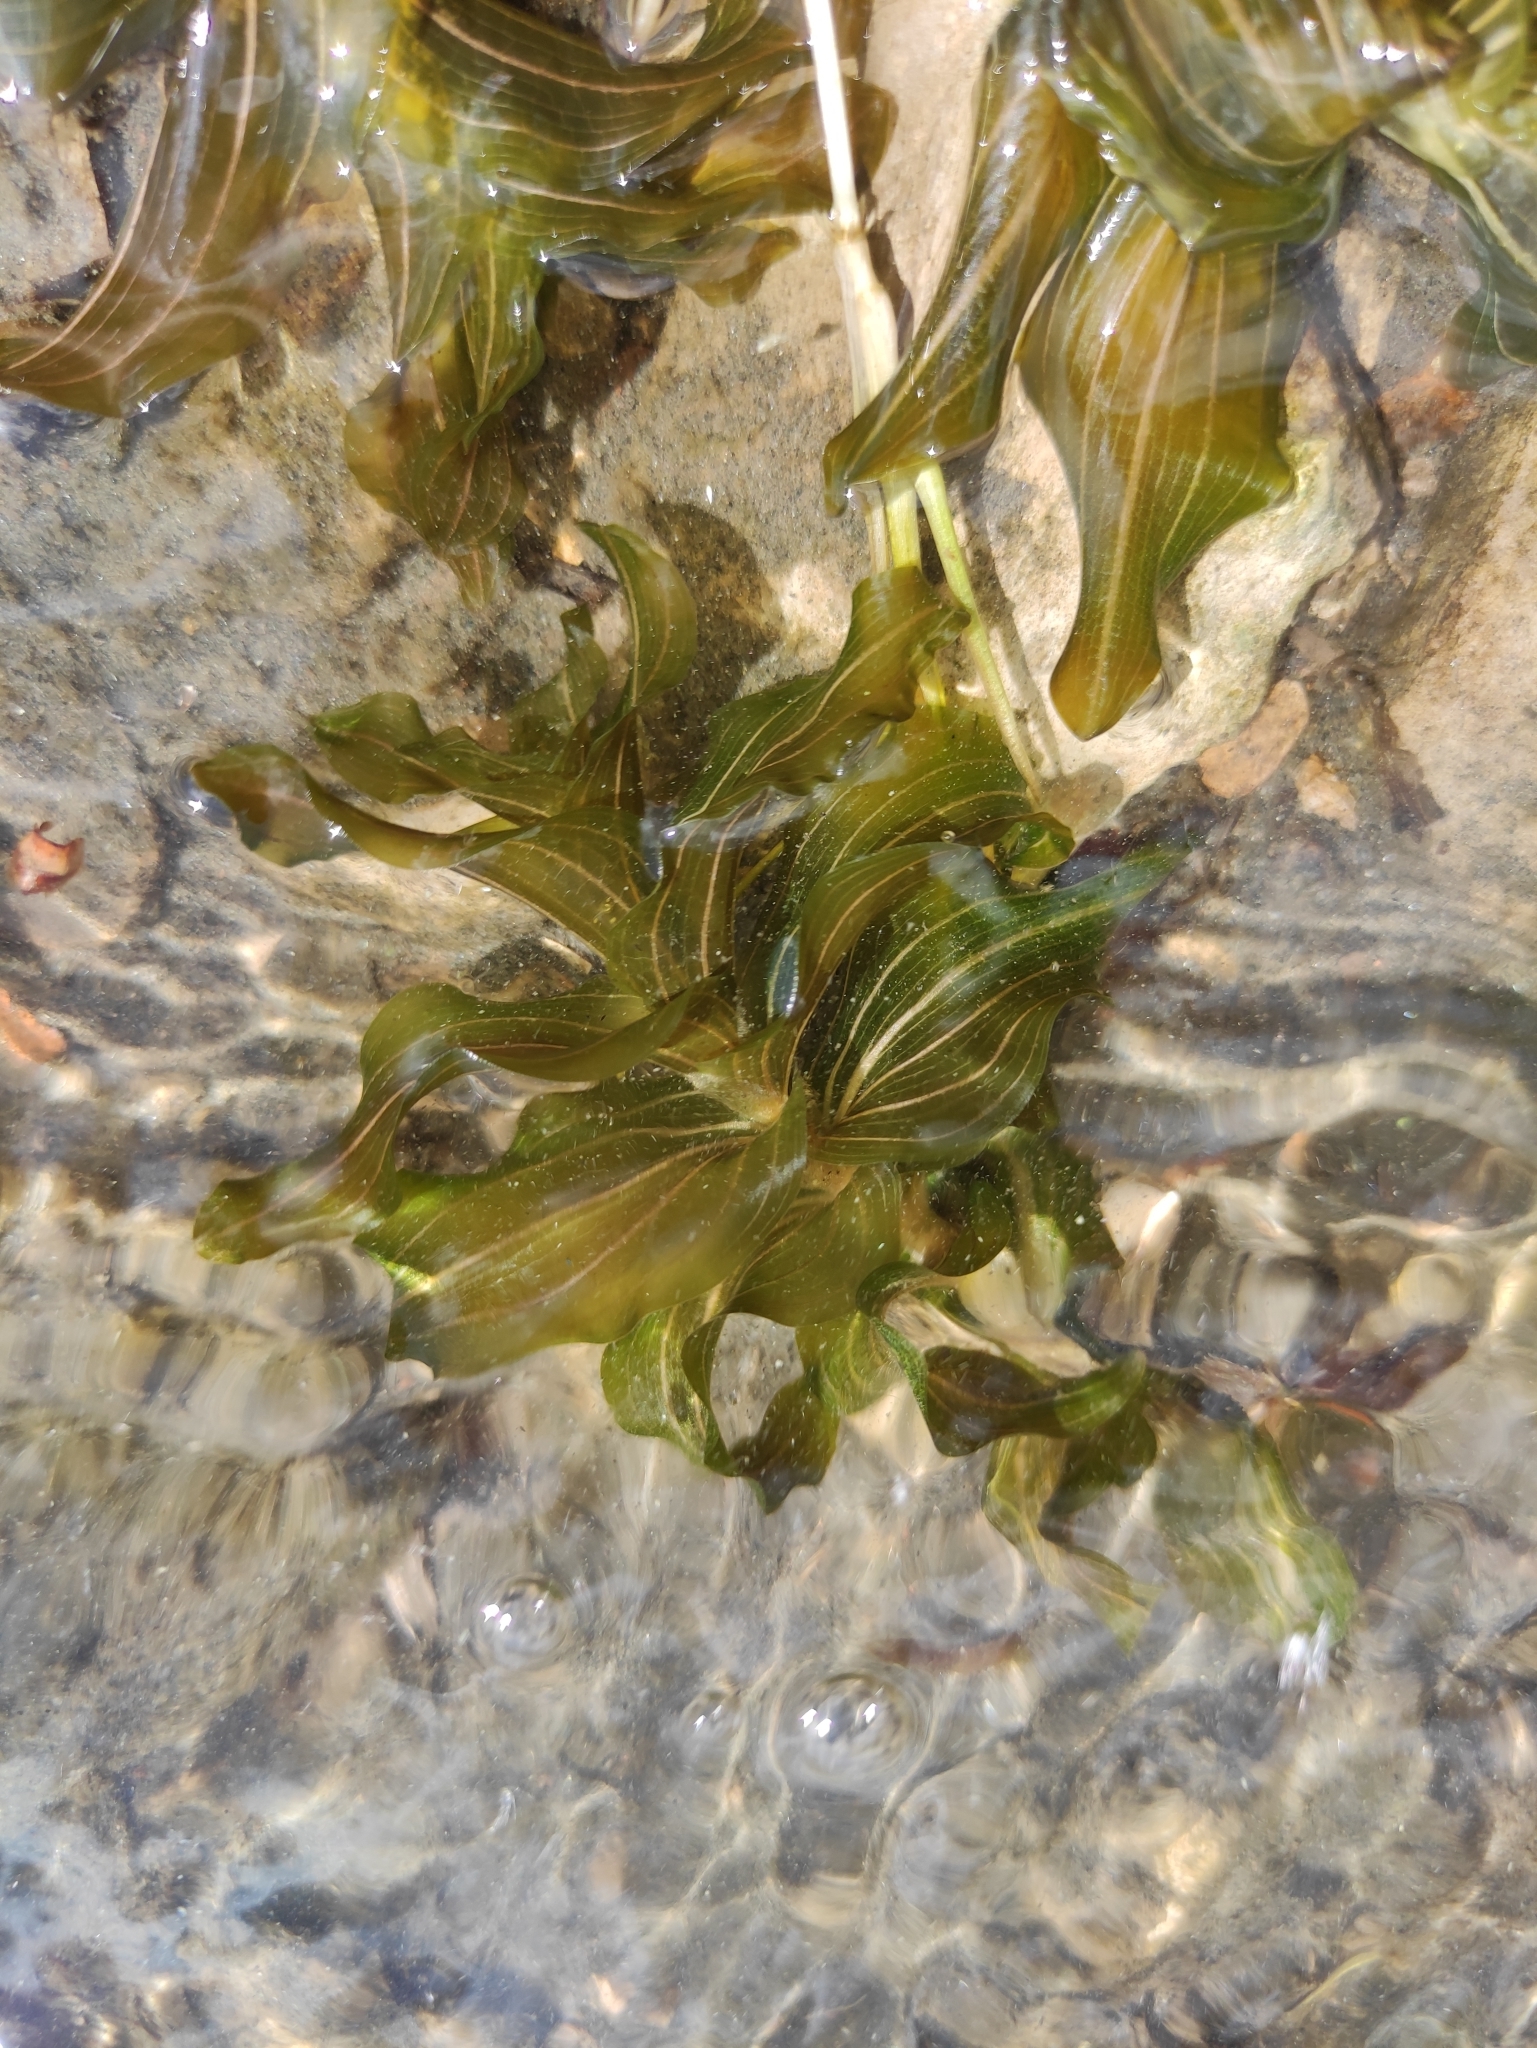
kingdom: Plantae
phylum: Tracheophyta
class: Liliopsida
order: Alismatales
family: Potamogetonaceae
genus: Potamogeton
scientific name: Potamogeton perfoliatus
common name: Perfoliate pondweed
